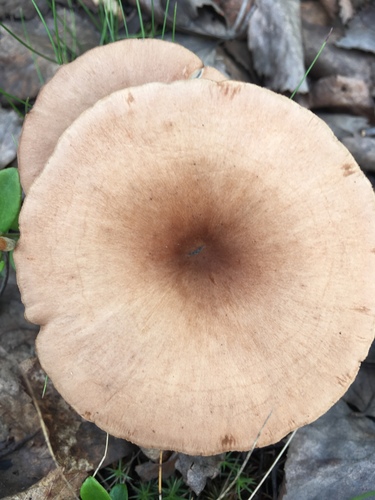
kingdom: Fungi
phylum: Basidiomycota
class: Agaricomycetes
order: Agaricales
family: Tricholomataceae
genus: Infundibulicybe
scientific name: Infundibulicybe gibba
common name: Common funnel
